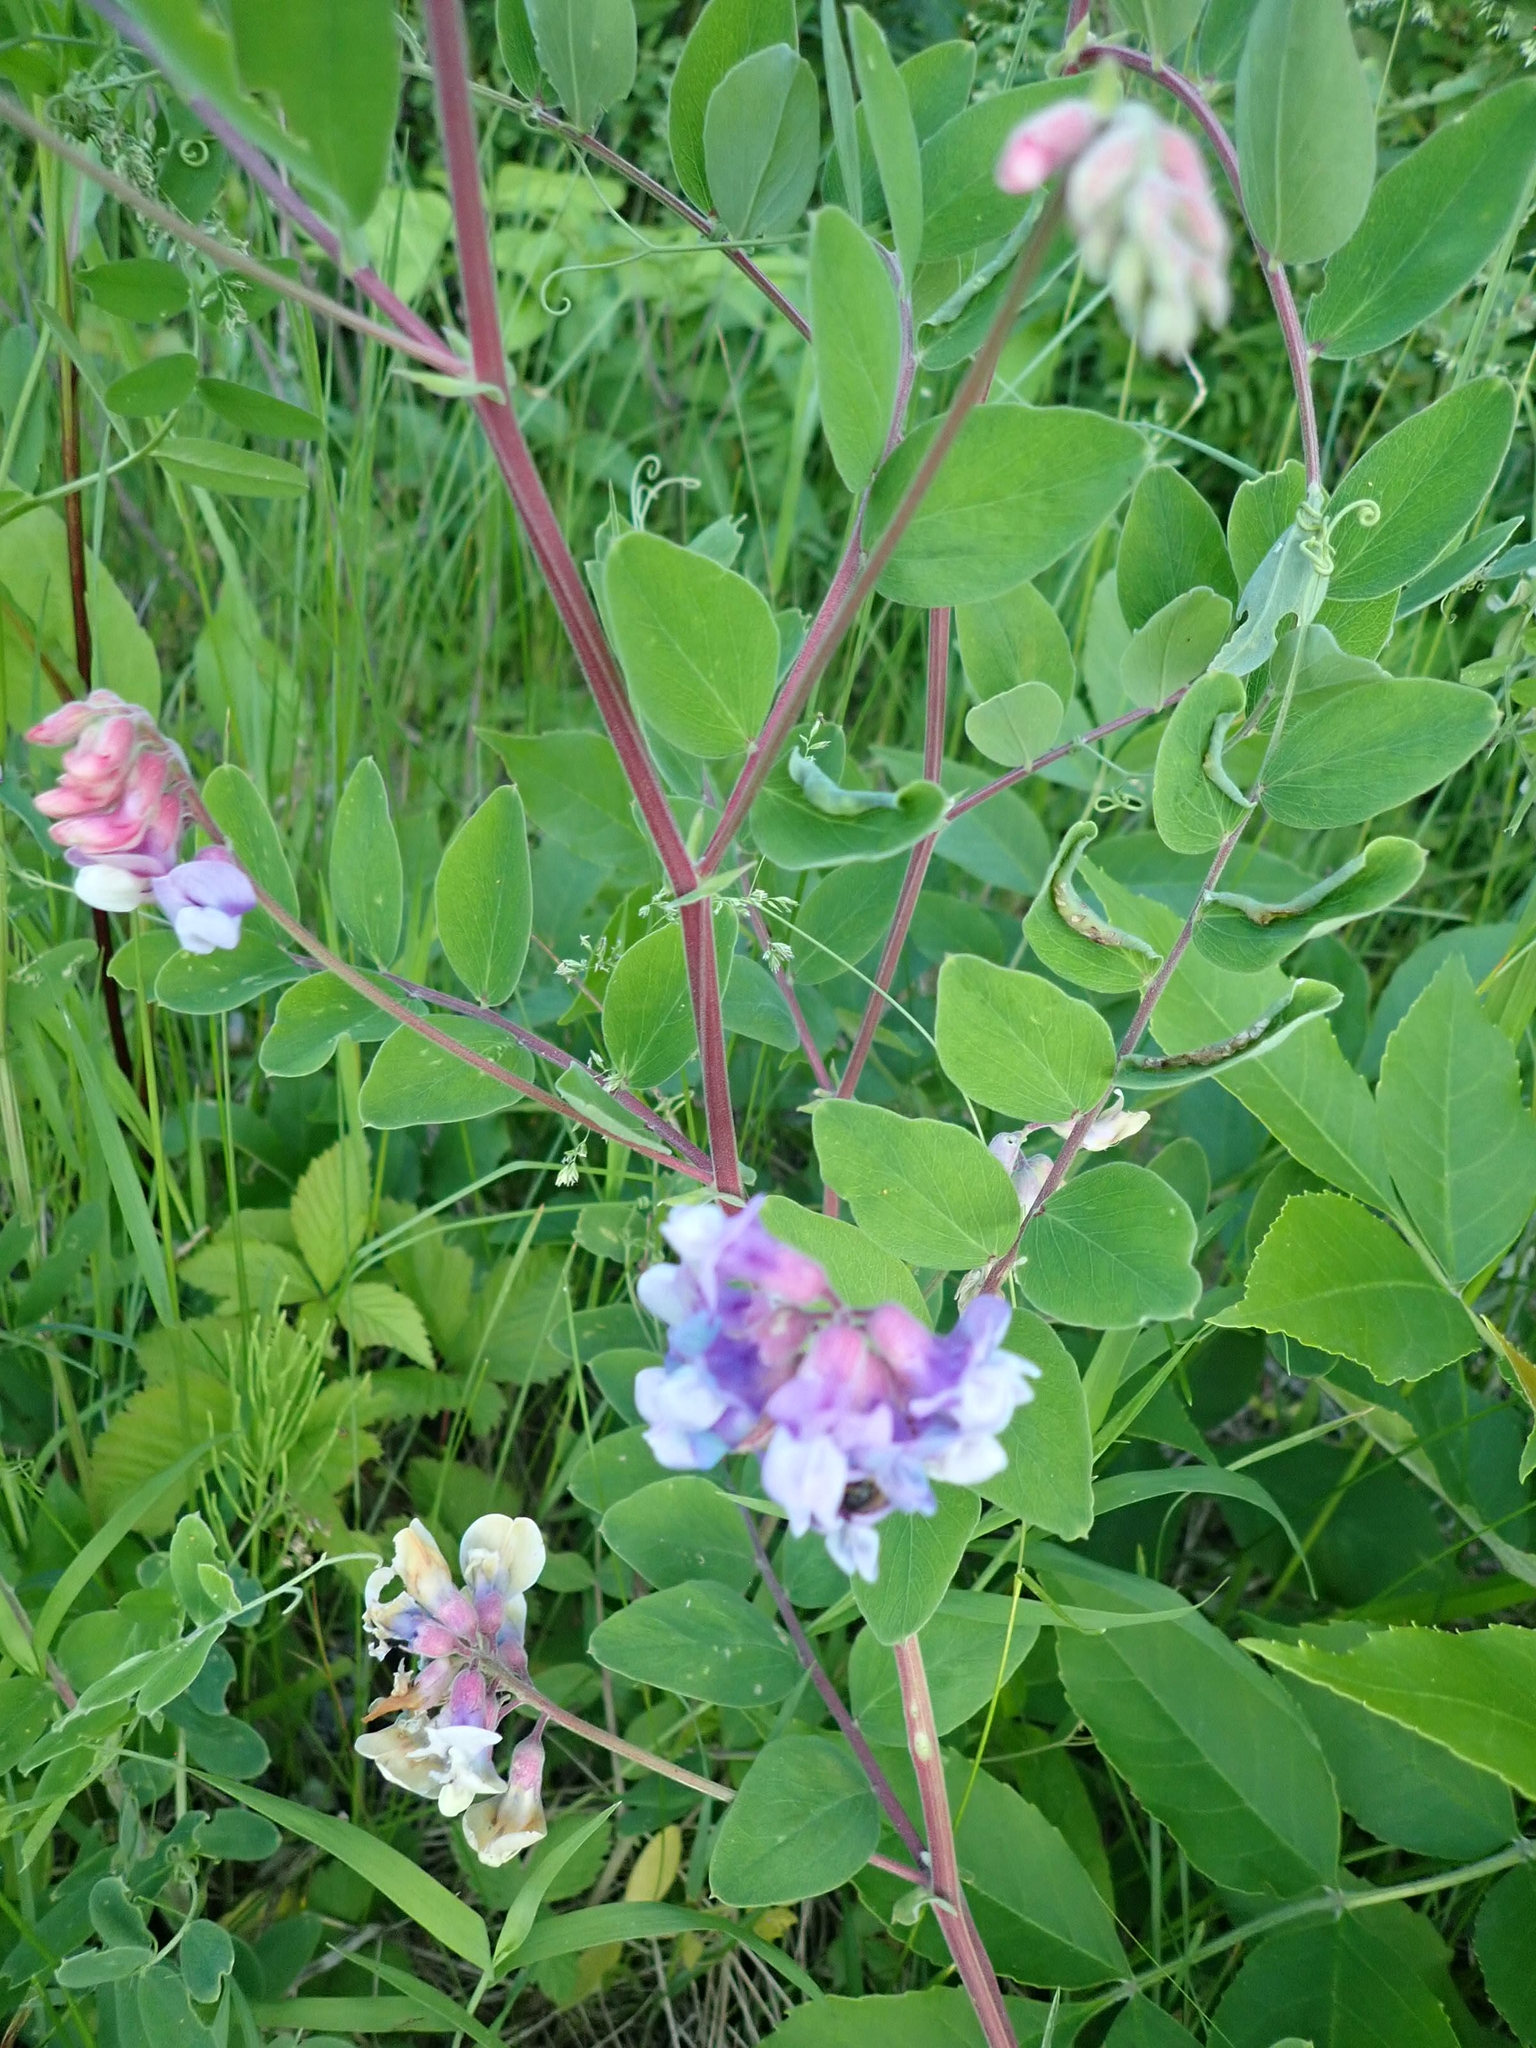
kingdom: Plantae
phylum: Tracheophyta
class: Magnoliopsida
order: Fabales
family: Fabaceae
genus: Lathyrus
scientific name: Lathyrus venosus
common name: Forest-pea
